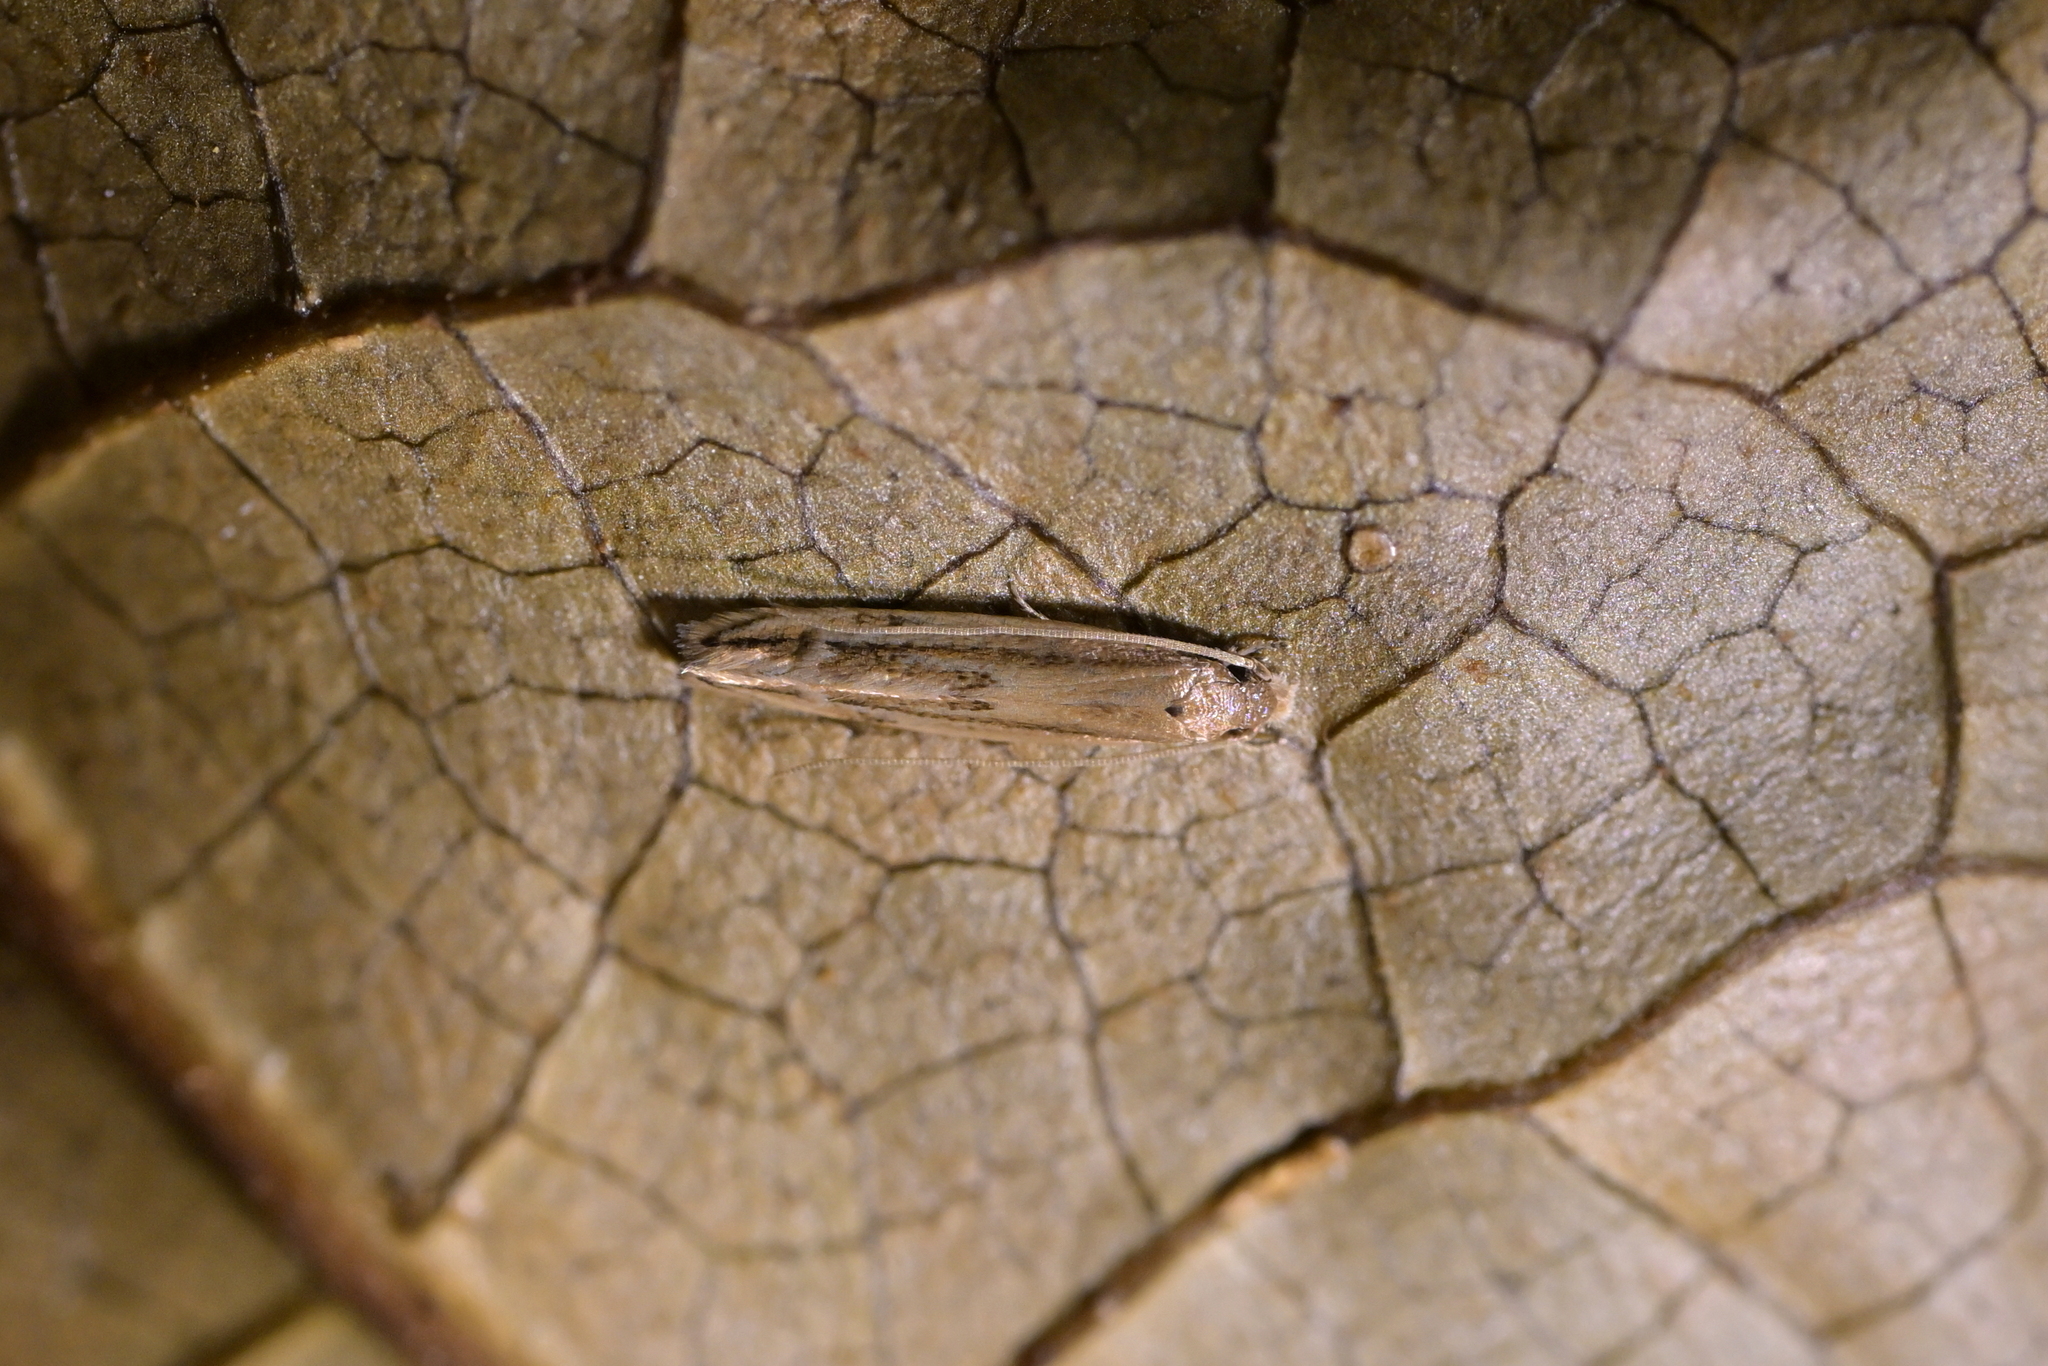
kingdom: Animalia
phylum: Arthropoda
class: Insecta
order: Lepidoptera
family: Tineidae
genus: Amphixystis
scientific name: Amphixystis hapsimacha
